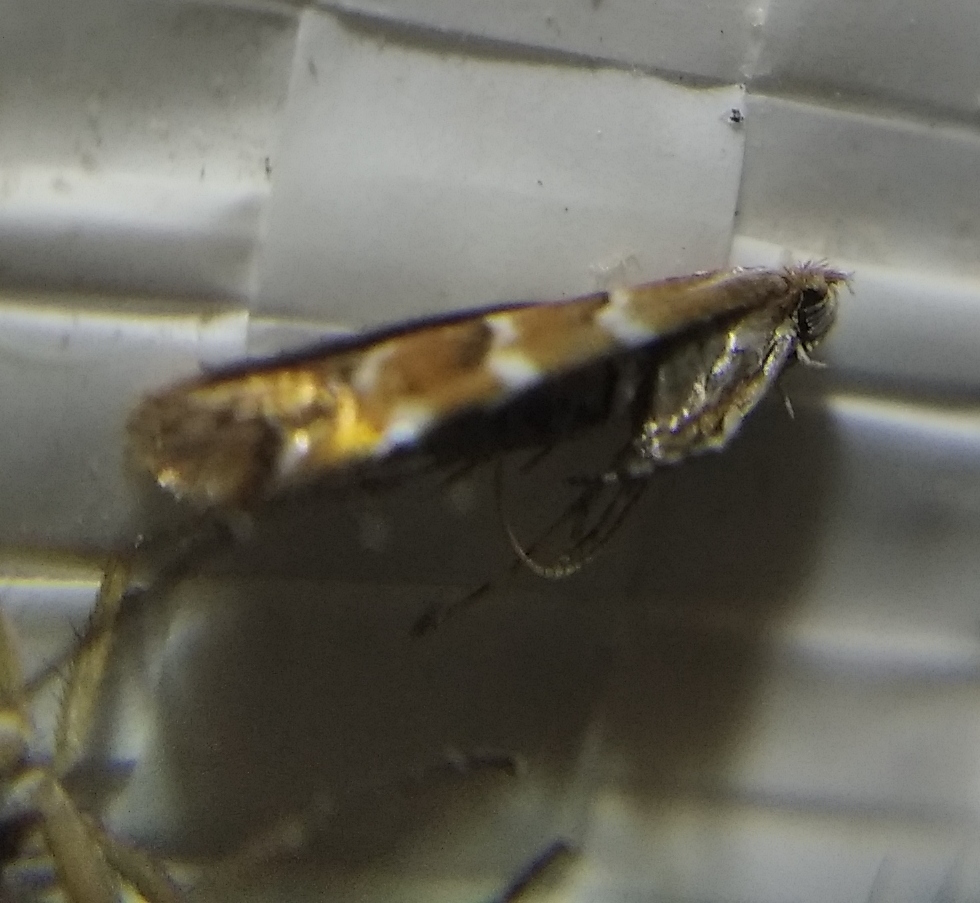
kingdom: Animalia
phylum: Arthropoda
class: Insecta
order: Lepidoptera
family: Gracillariidae
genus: Cameraria
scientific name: Cameraria ohridella
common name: Horse-chestnut leaf-miner
